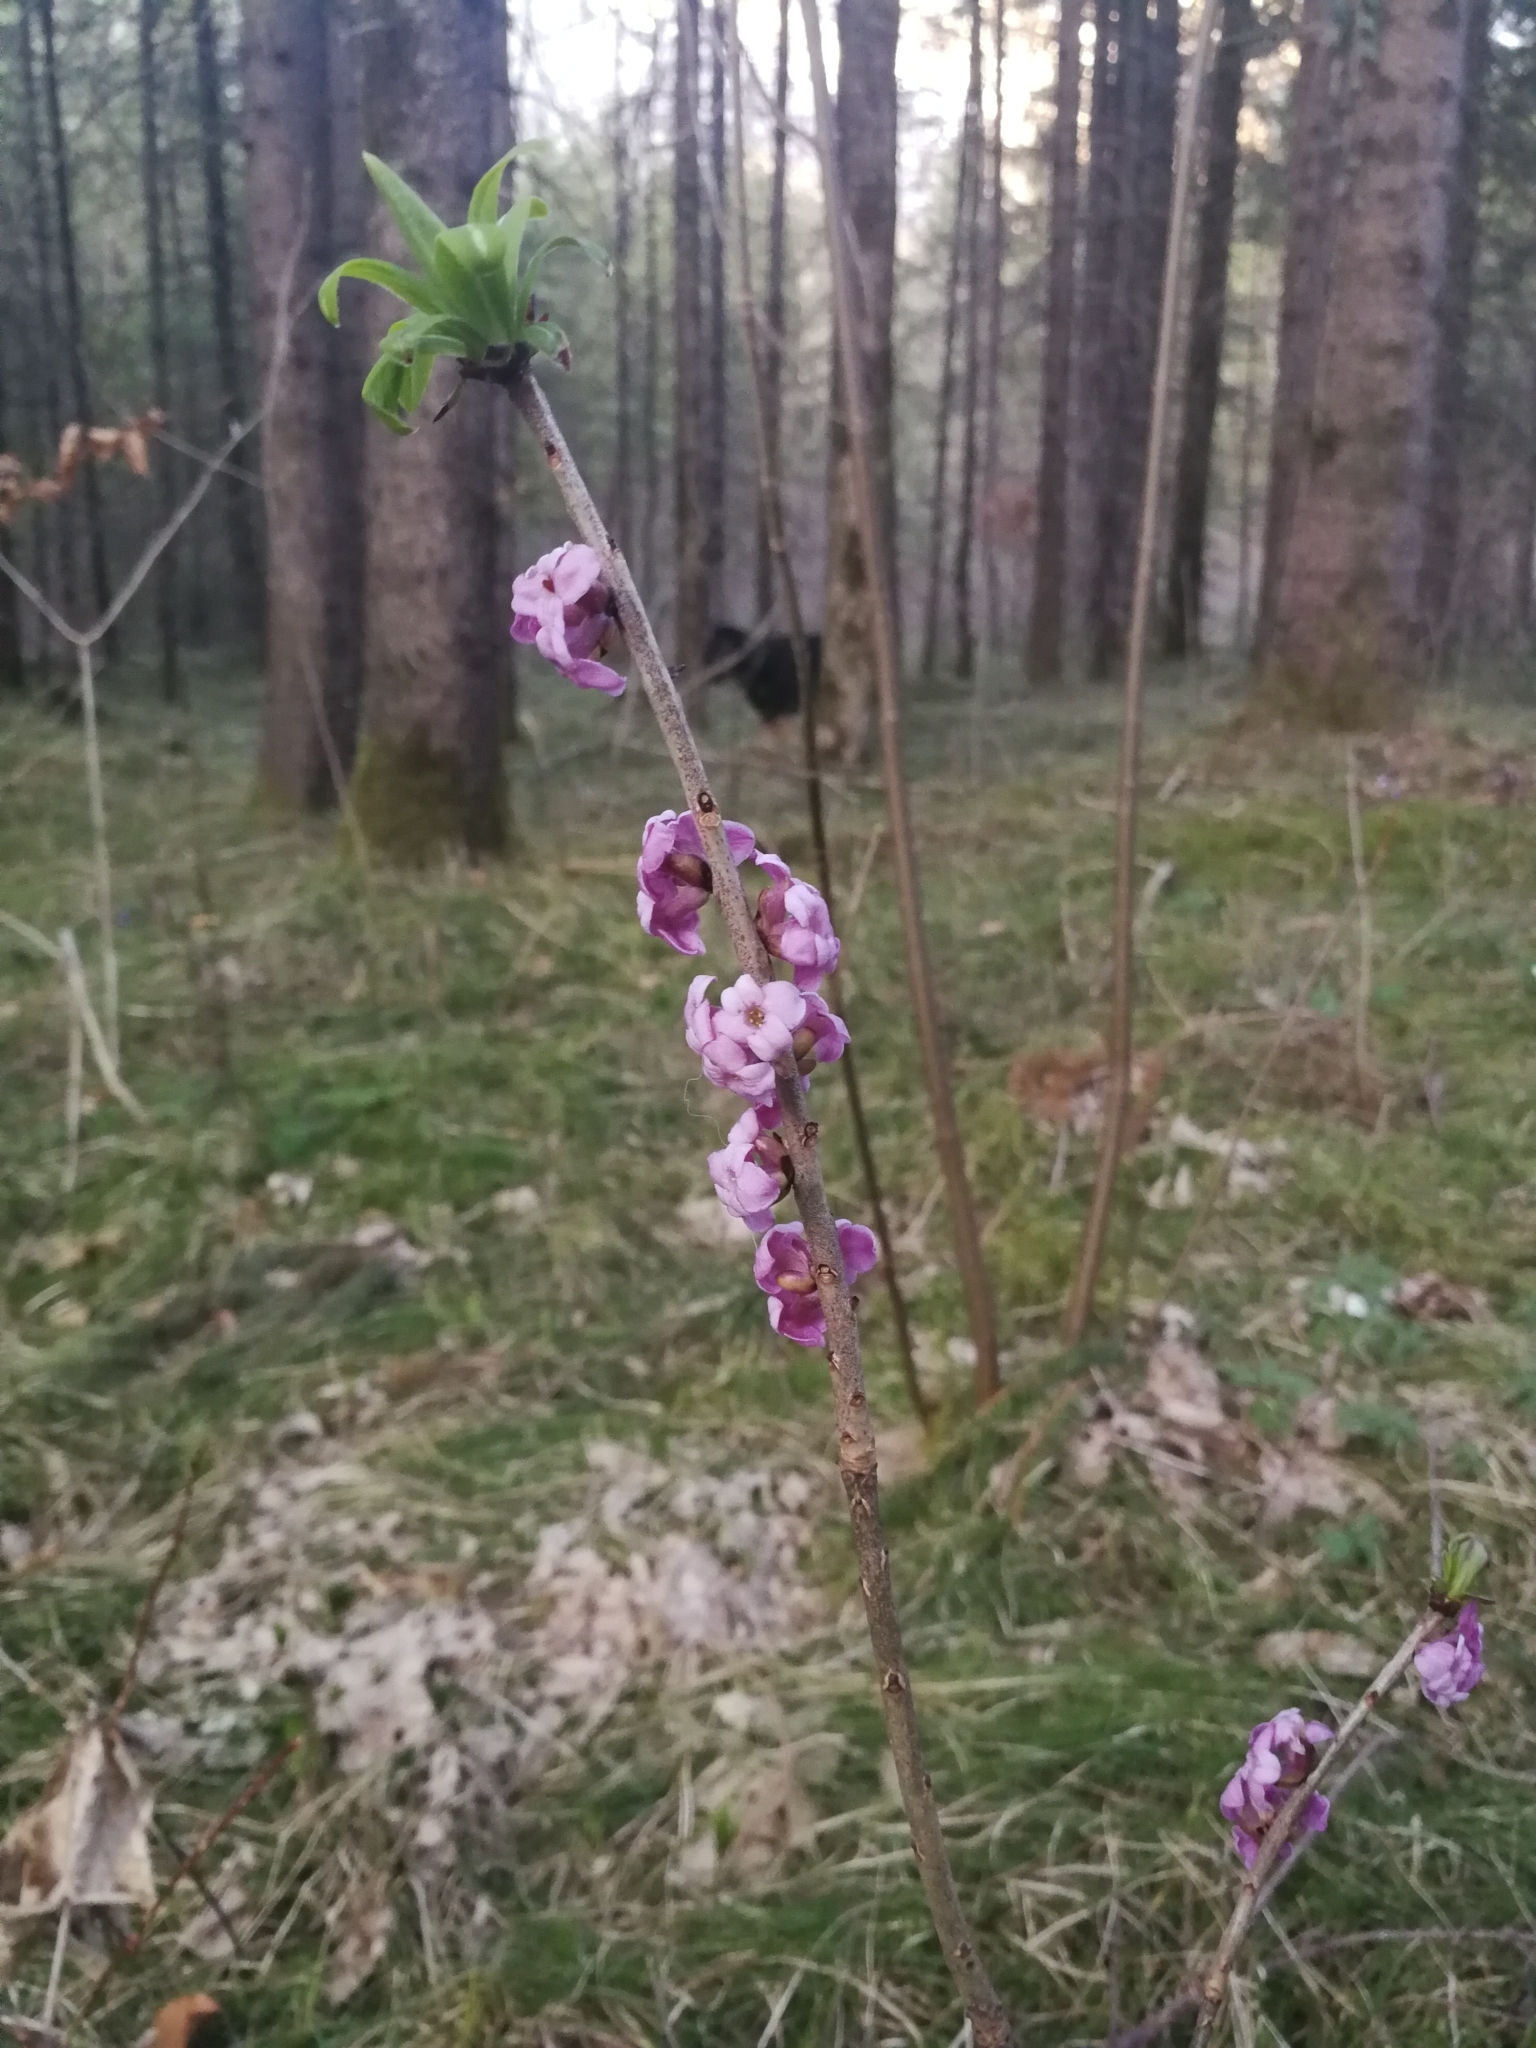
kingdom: Plantae
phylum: Tracheophyta
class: Magnoliopsida
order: Malvales
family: Thymelaeaceae
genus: Daphne
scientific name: Daphne mezereum
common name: Mezereon
